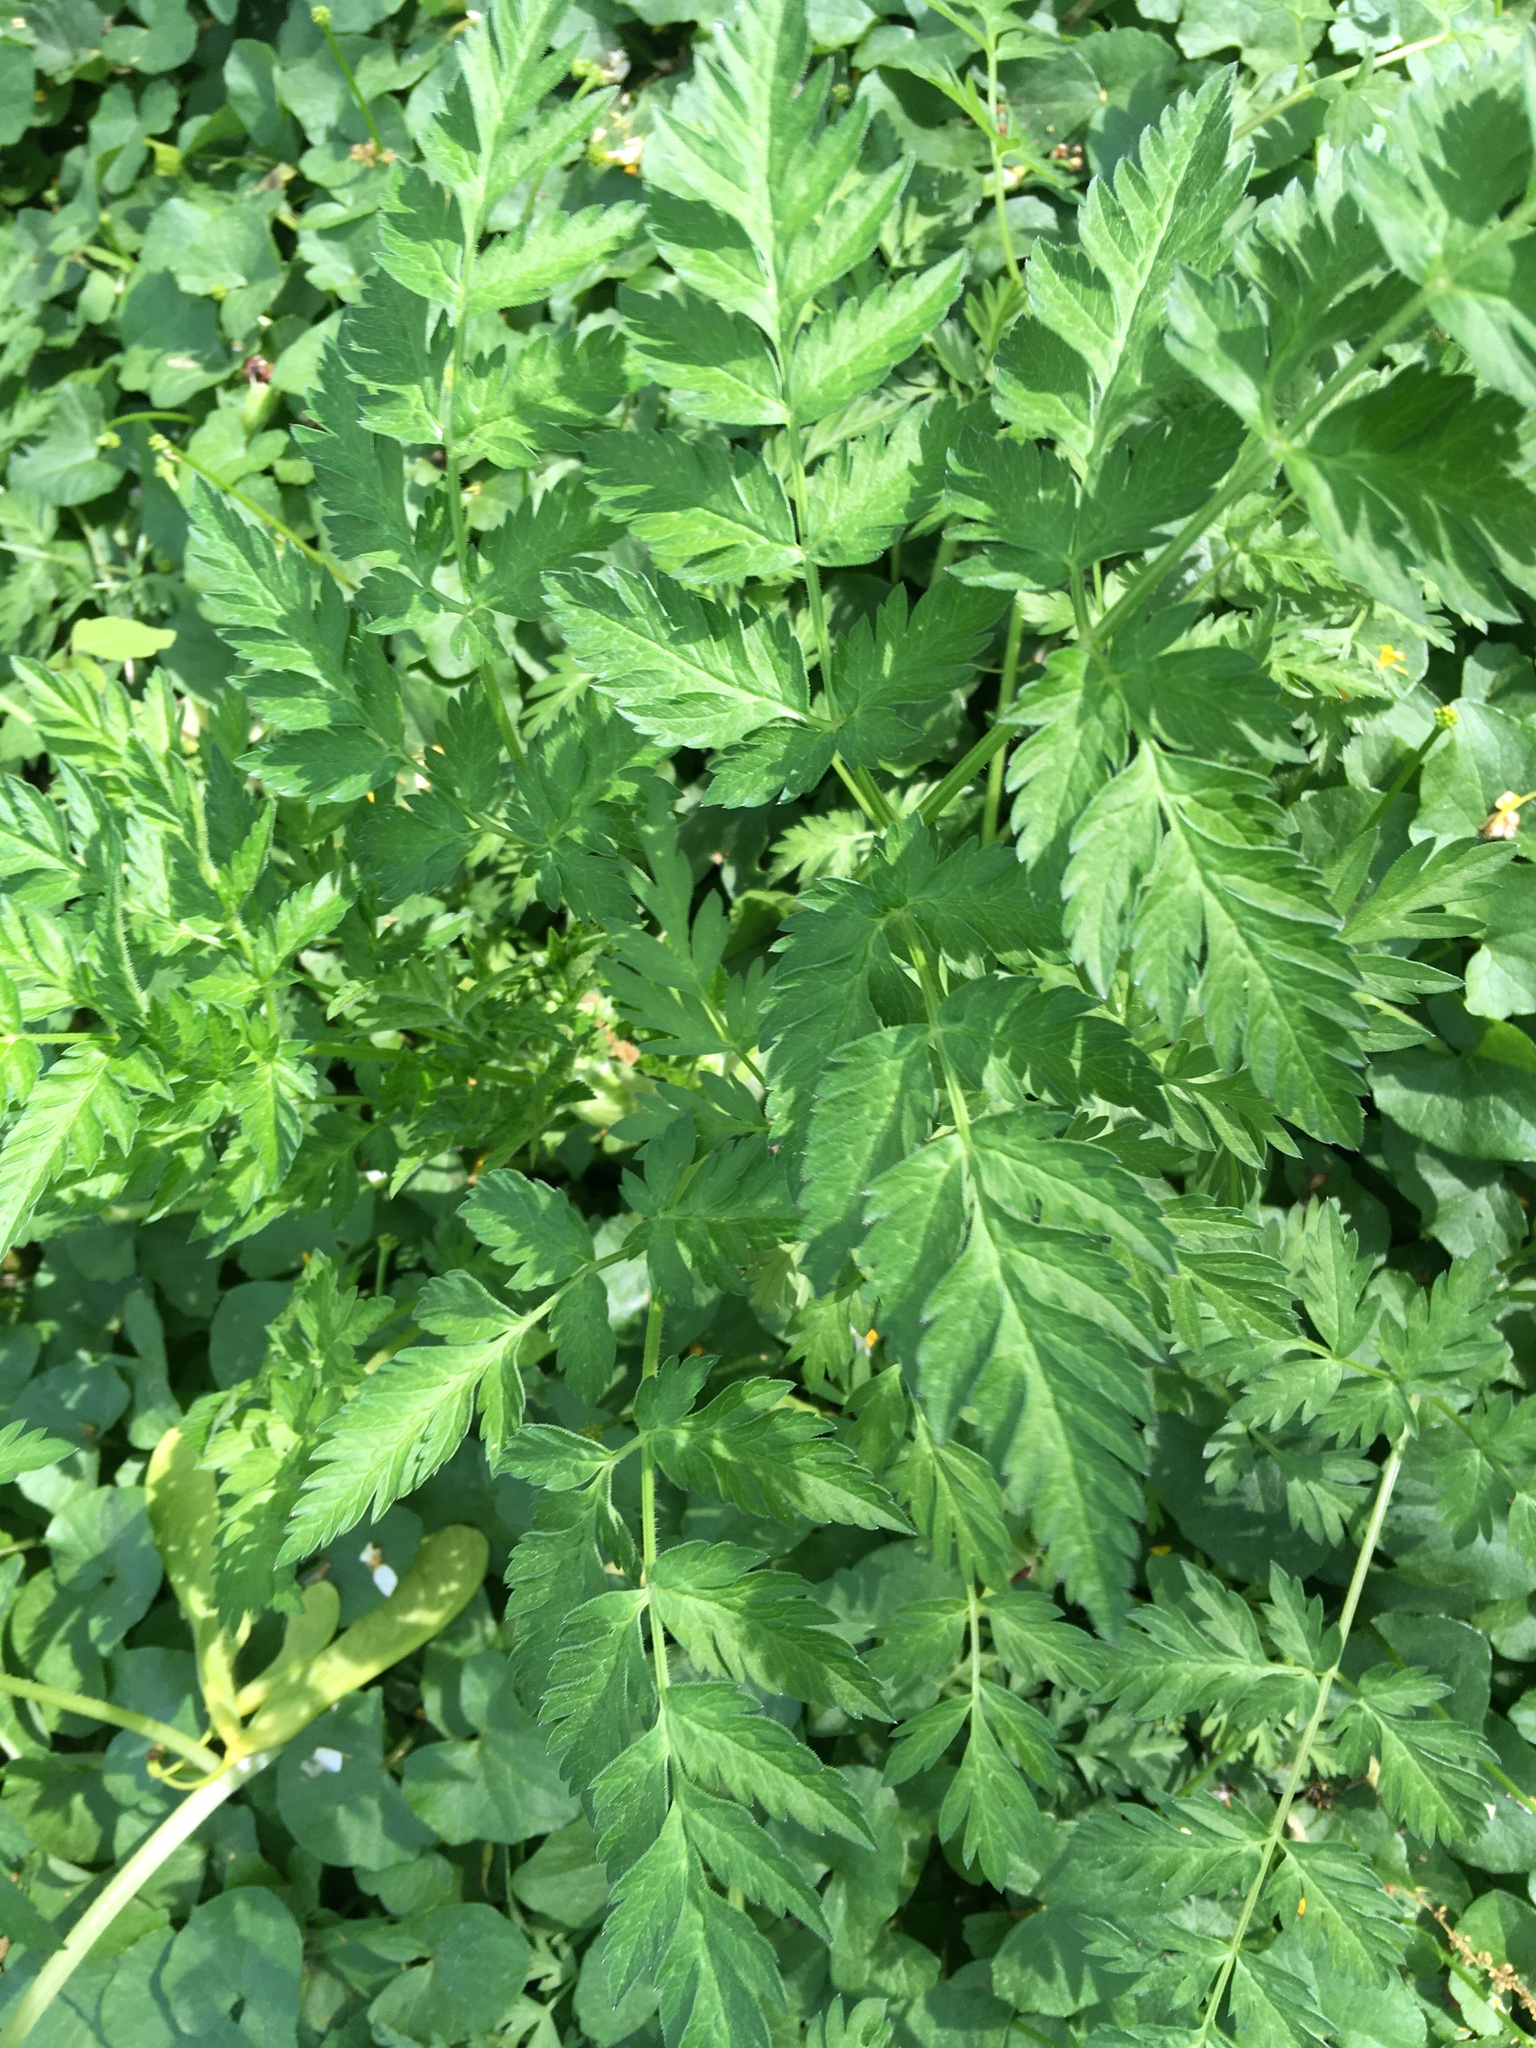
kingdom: Plantae
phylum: Tracheophyta
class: Magnoliopsida
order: Apiales
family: Apiaceae
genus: Anthriscus
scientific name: Anthriscus sylvestris
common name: Cow parsley
